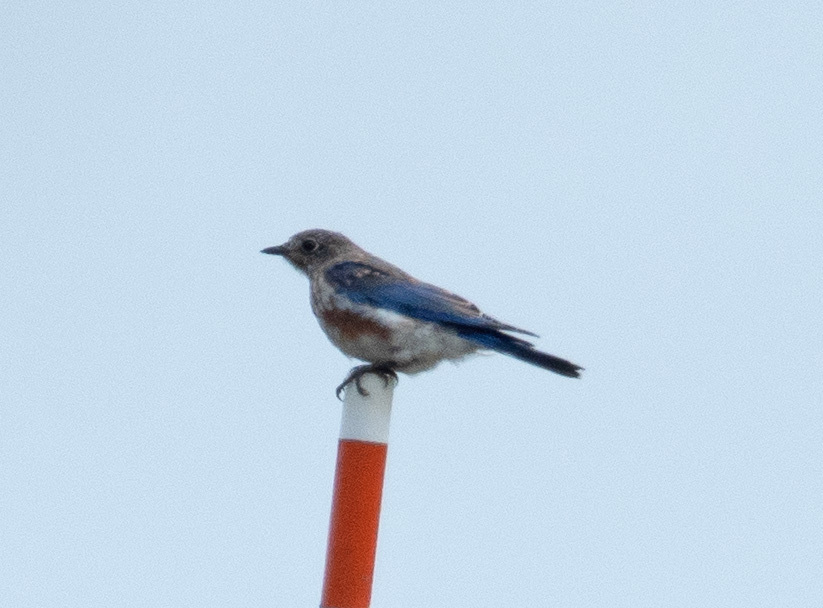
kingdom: Animalia
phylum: Chordata
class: Aves
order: Passeriformes
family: Turdidae
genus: Sialia
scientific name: Sialia sialis
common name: Eastern bluebird
